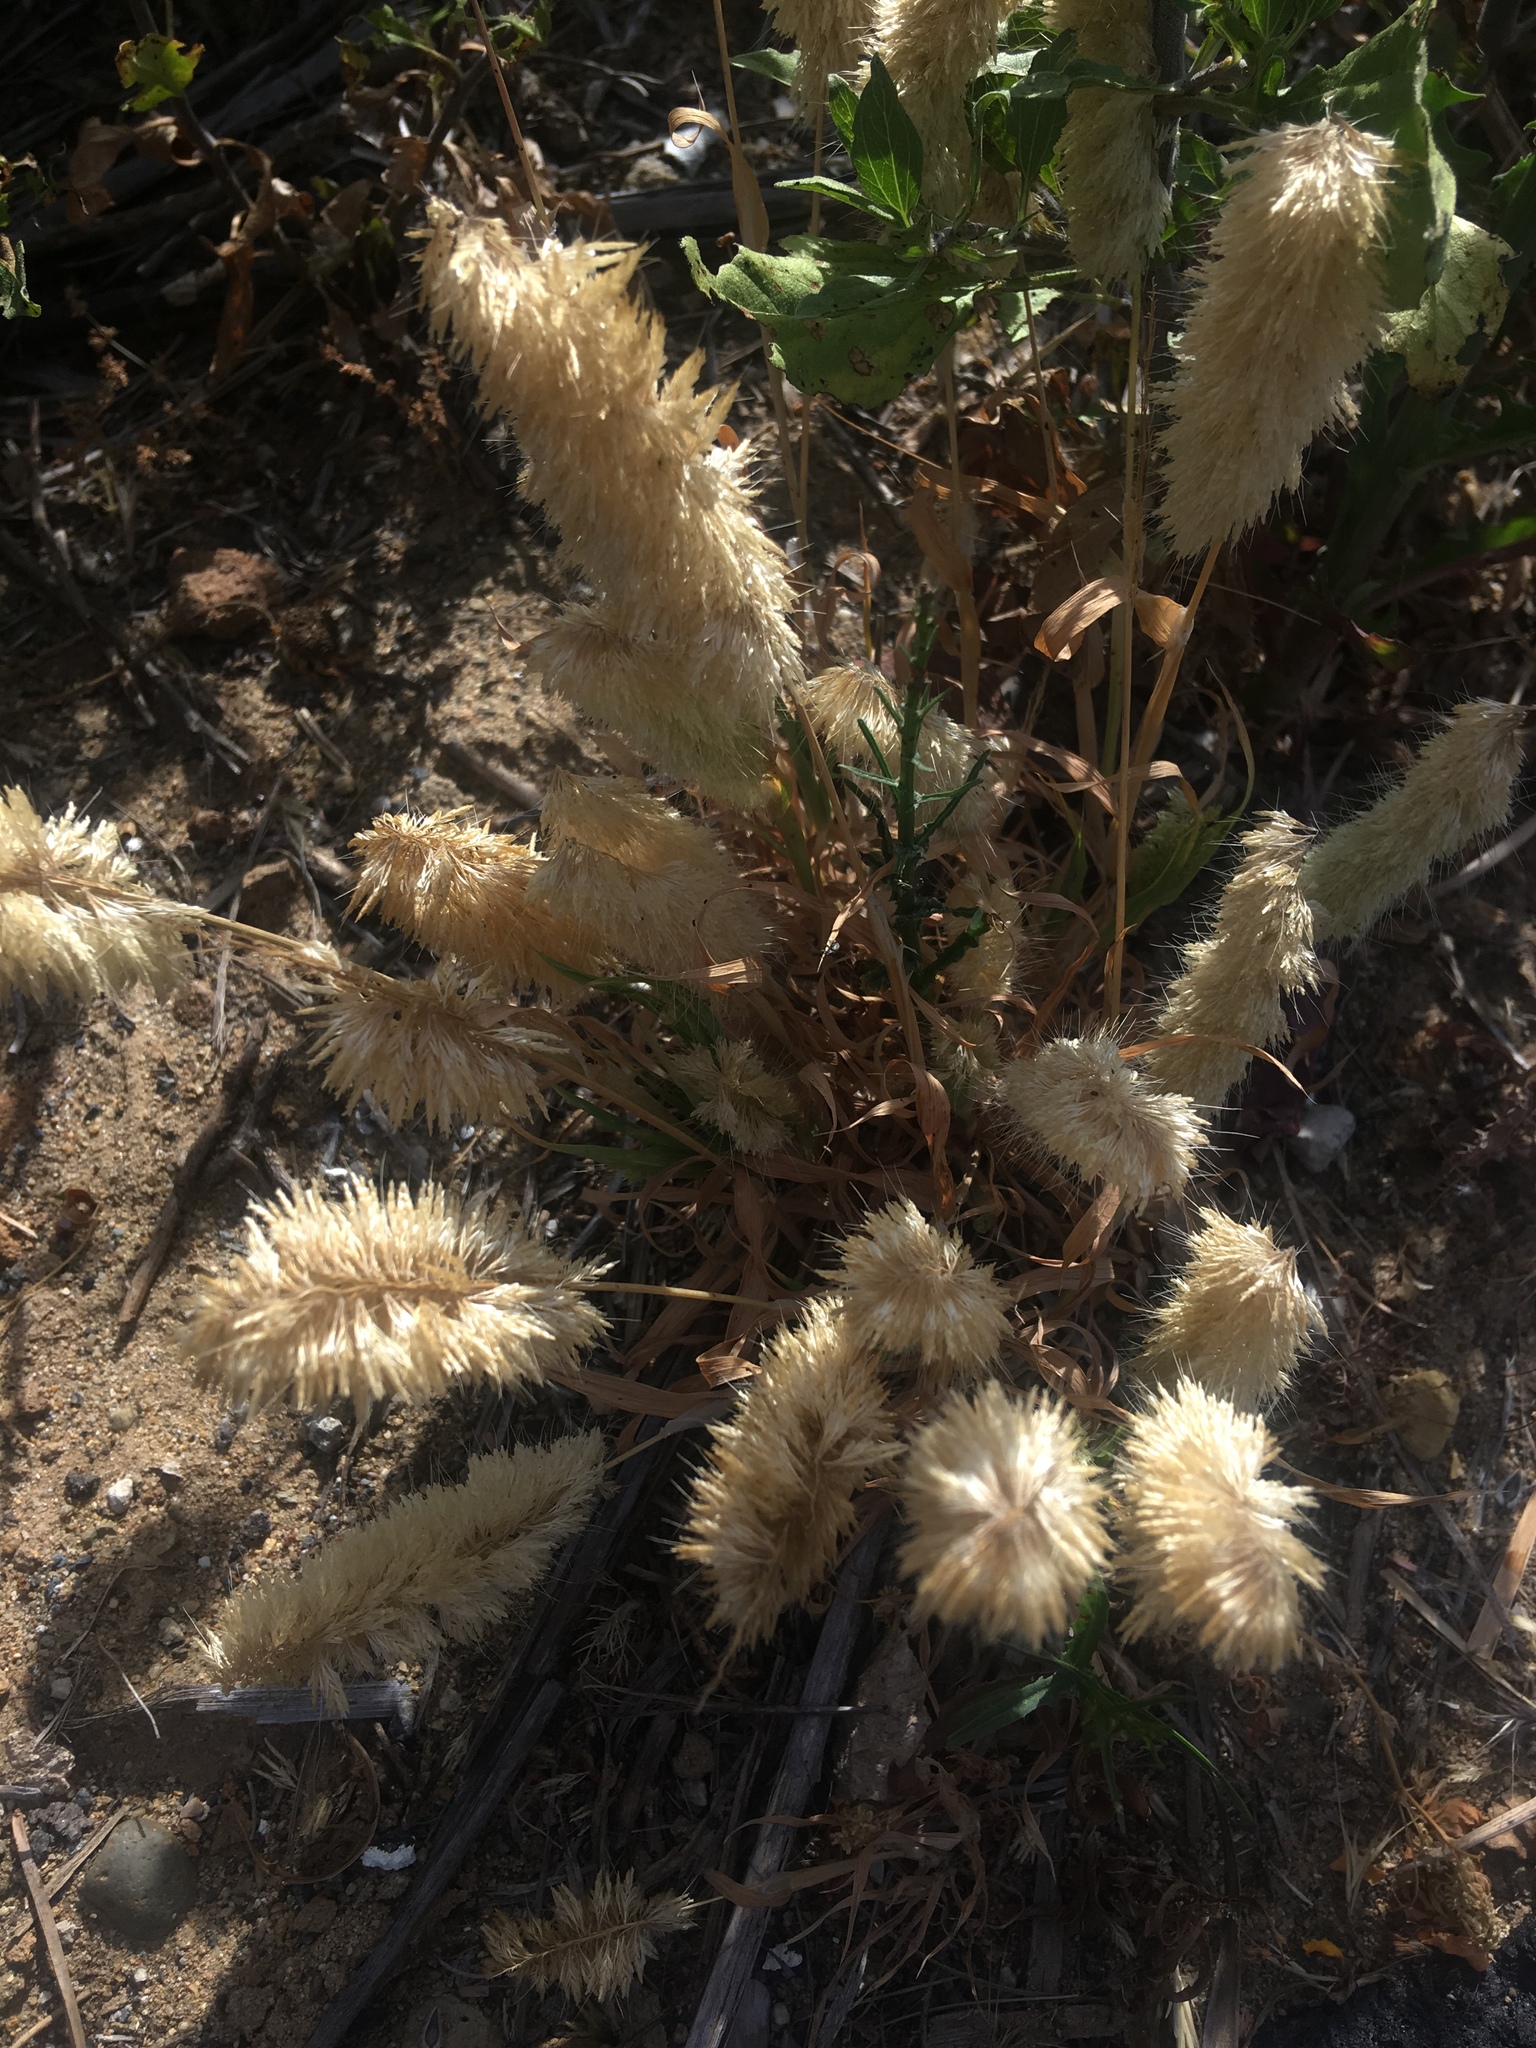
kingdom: Plantae
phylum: Tracheophyta
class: Liliopsida
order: Poales
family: Poaceae
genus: Lamarckia
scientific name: Lamarckia aurea
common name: Golden dog's-tail
